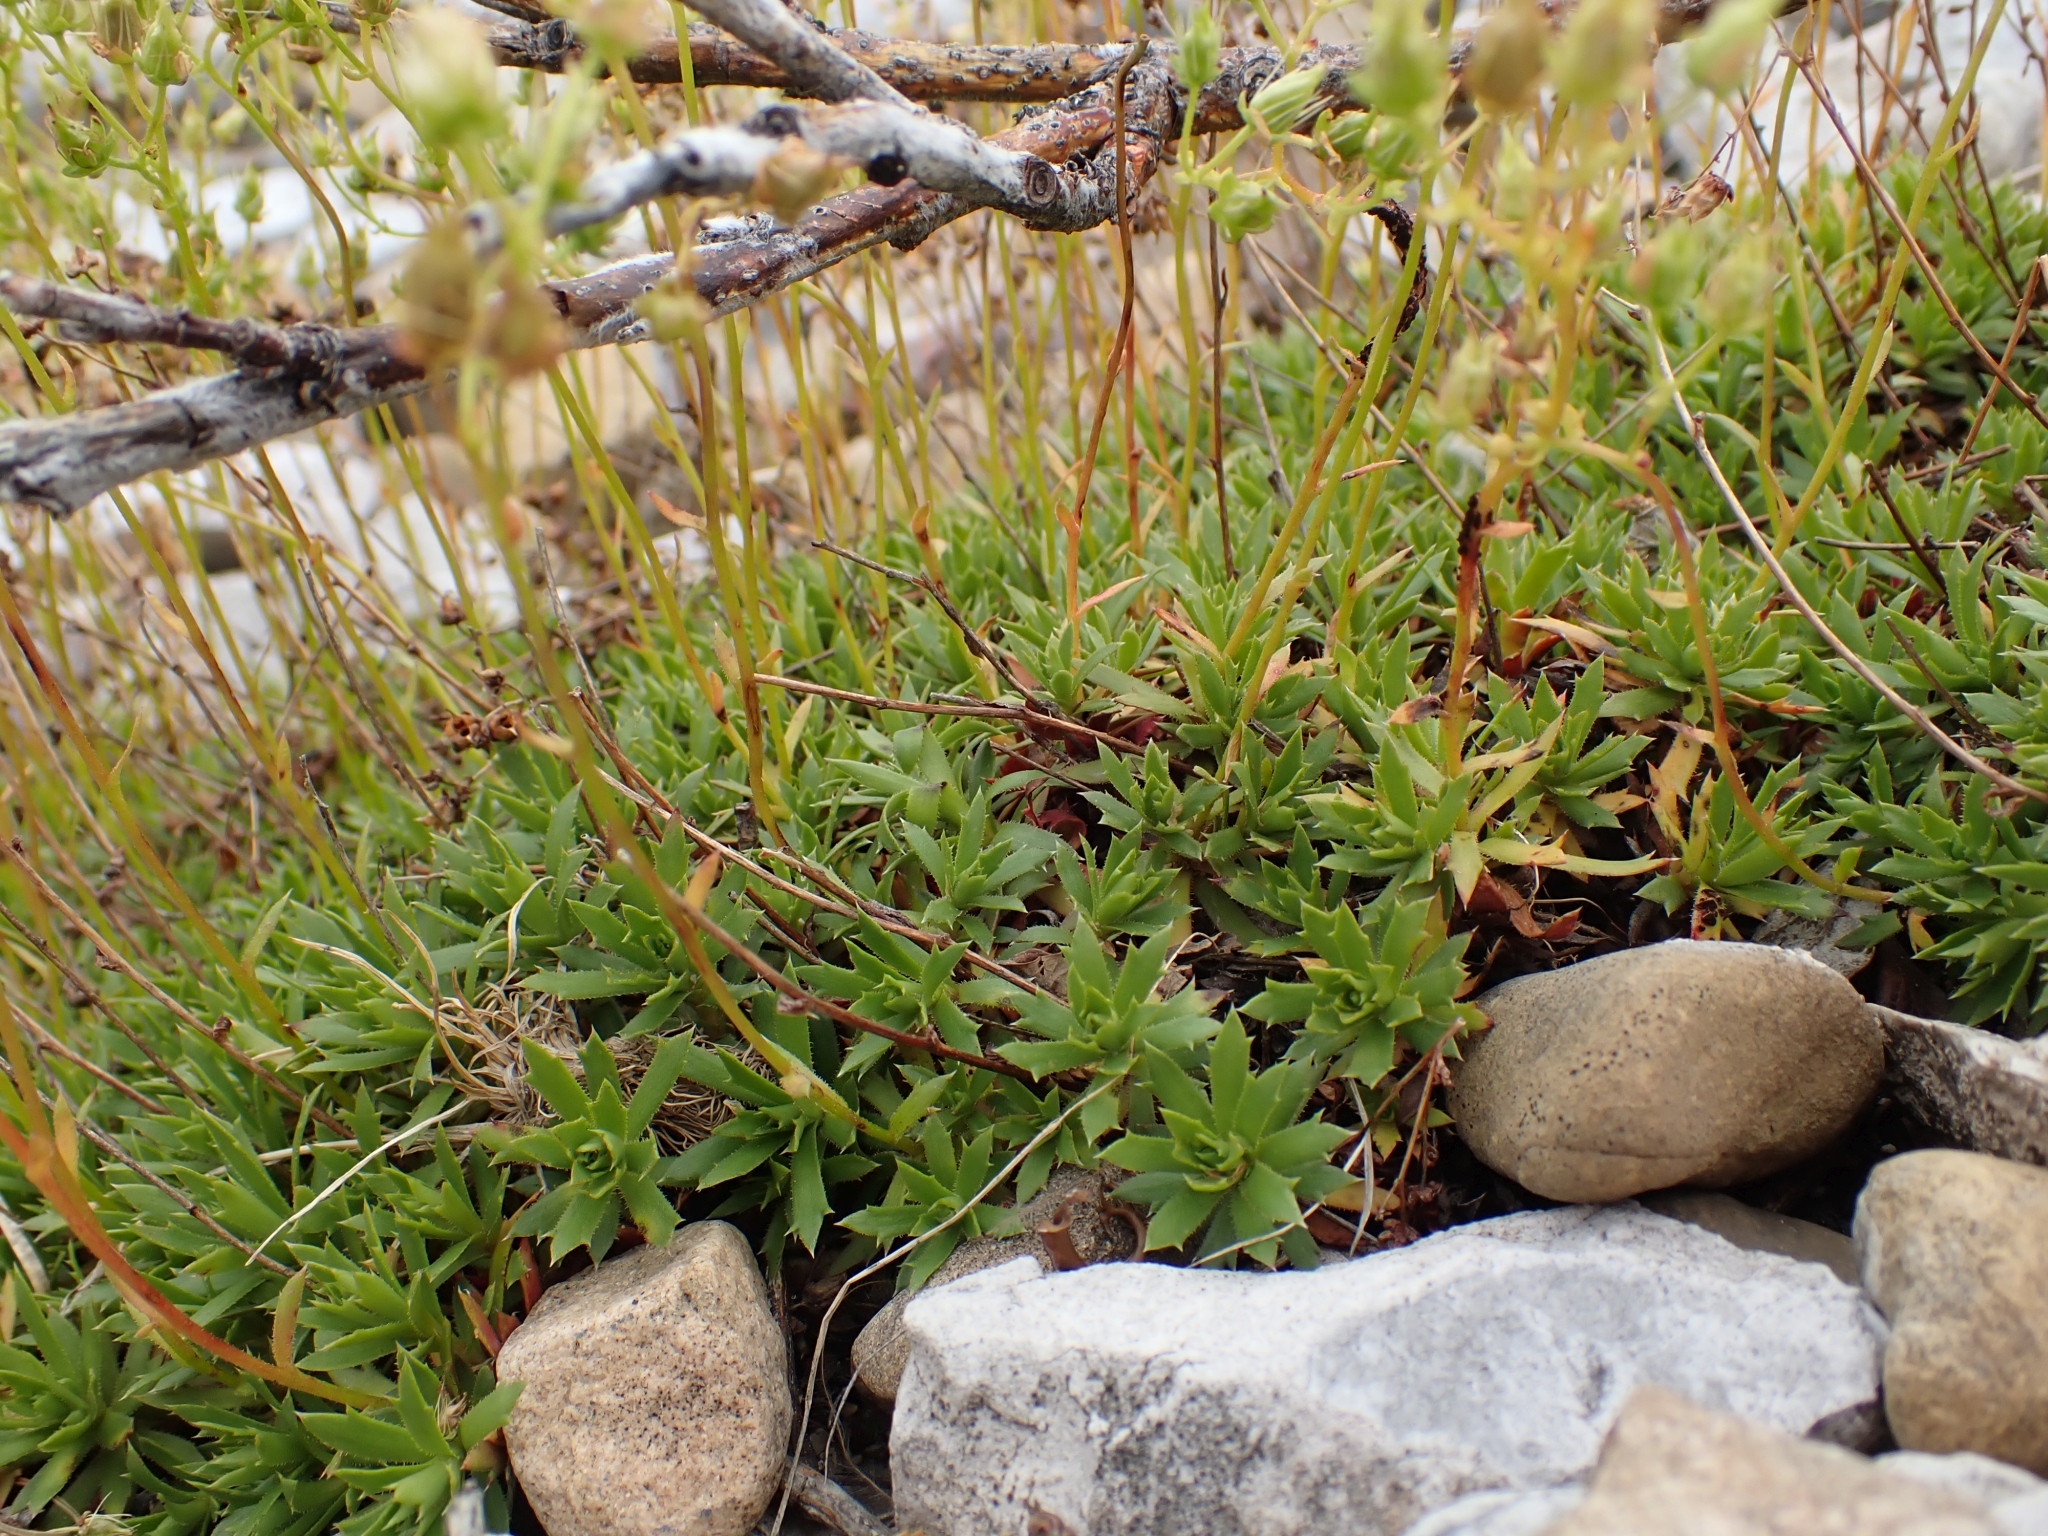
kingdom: Plantae
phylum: Tracheophyta
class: Magnoliopsida
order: Saxifragales
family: Saxifragaceae
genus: Saxifraga
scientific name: Saxifraga tricuspidata
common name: Prickly saxifrage
